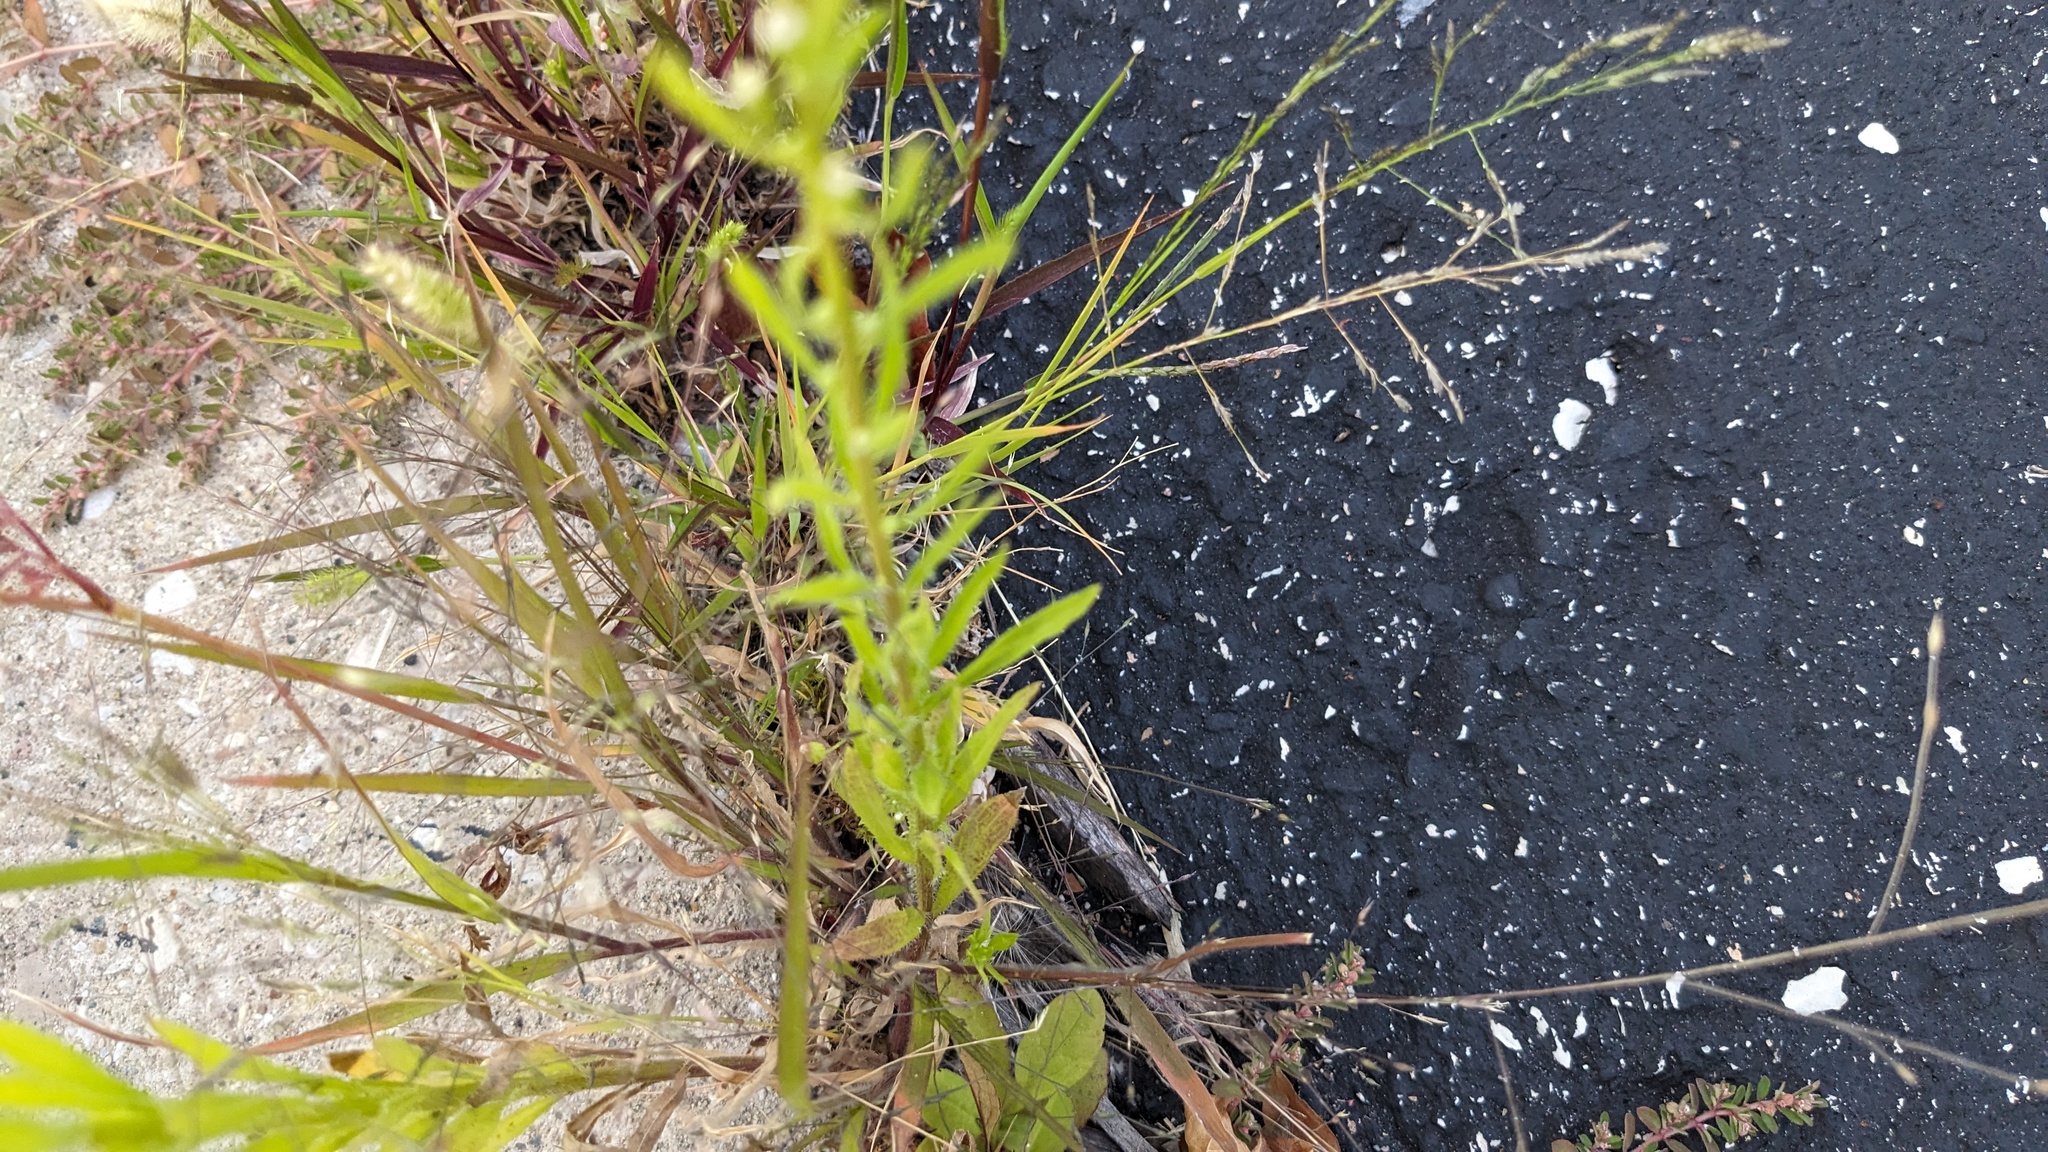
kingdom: Plantae
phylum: Tracheophyta
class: Magnoliopsida
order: Asterales
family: Asteraceae
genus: Erigeron
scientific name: Erigeron canadensis
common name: Canadian fleabane
